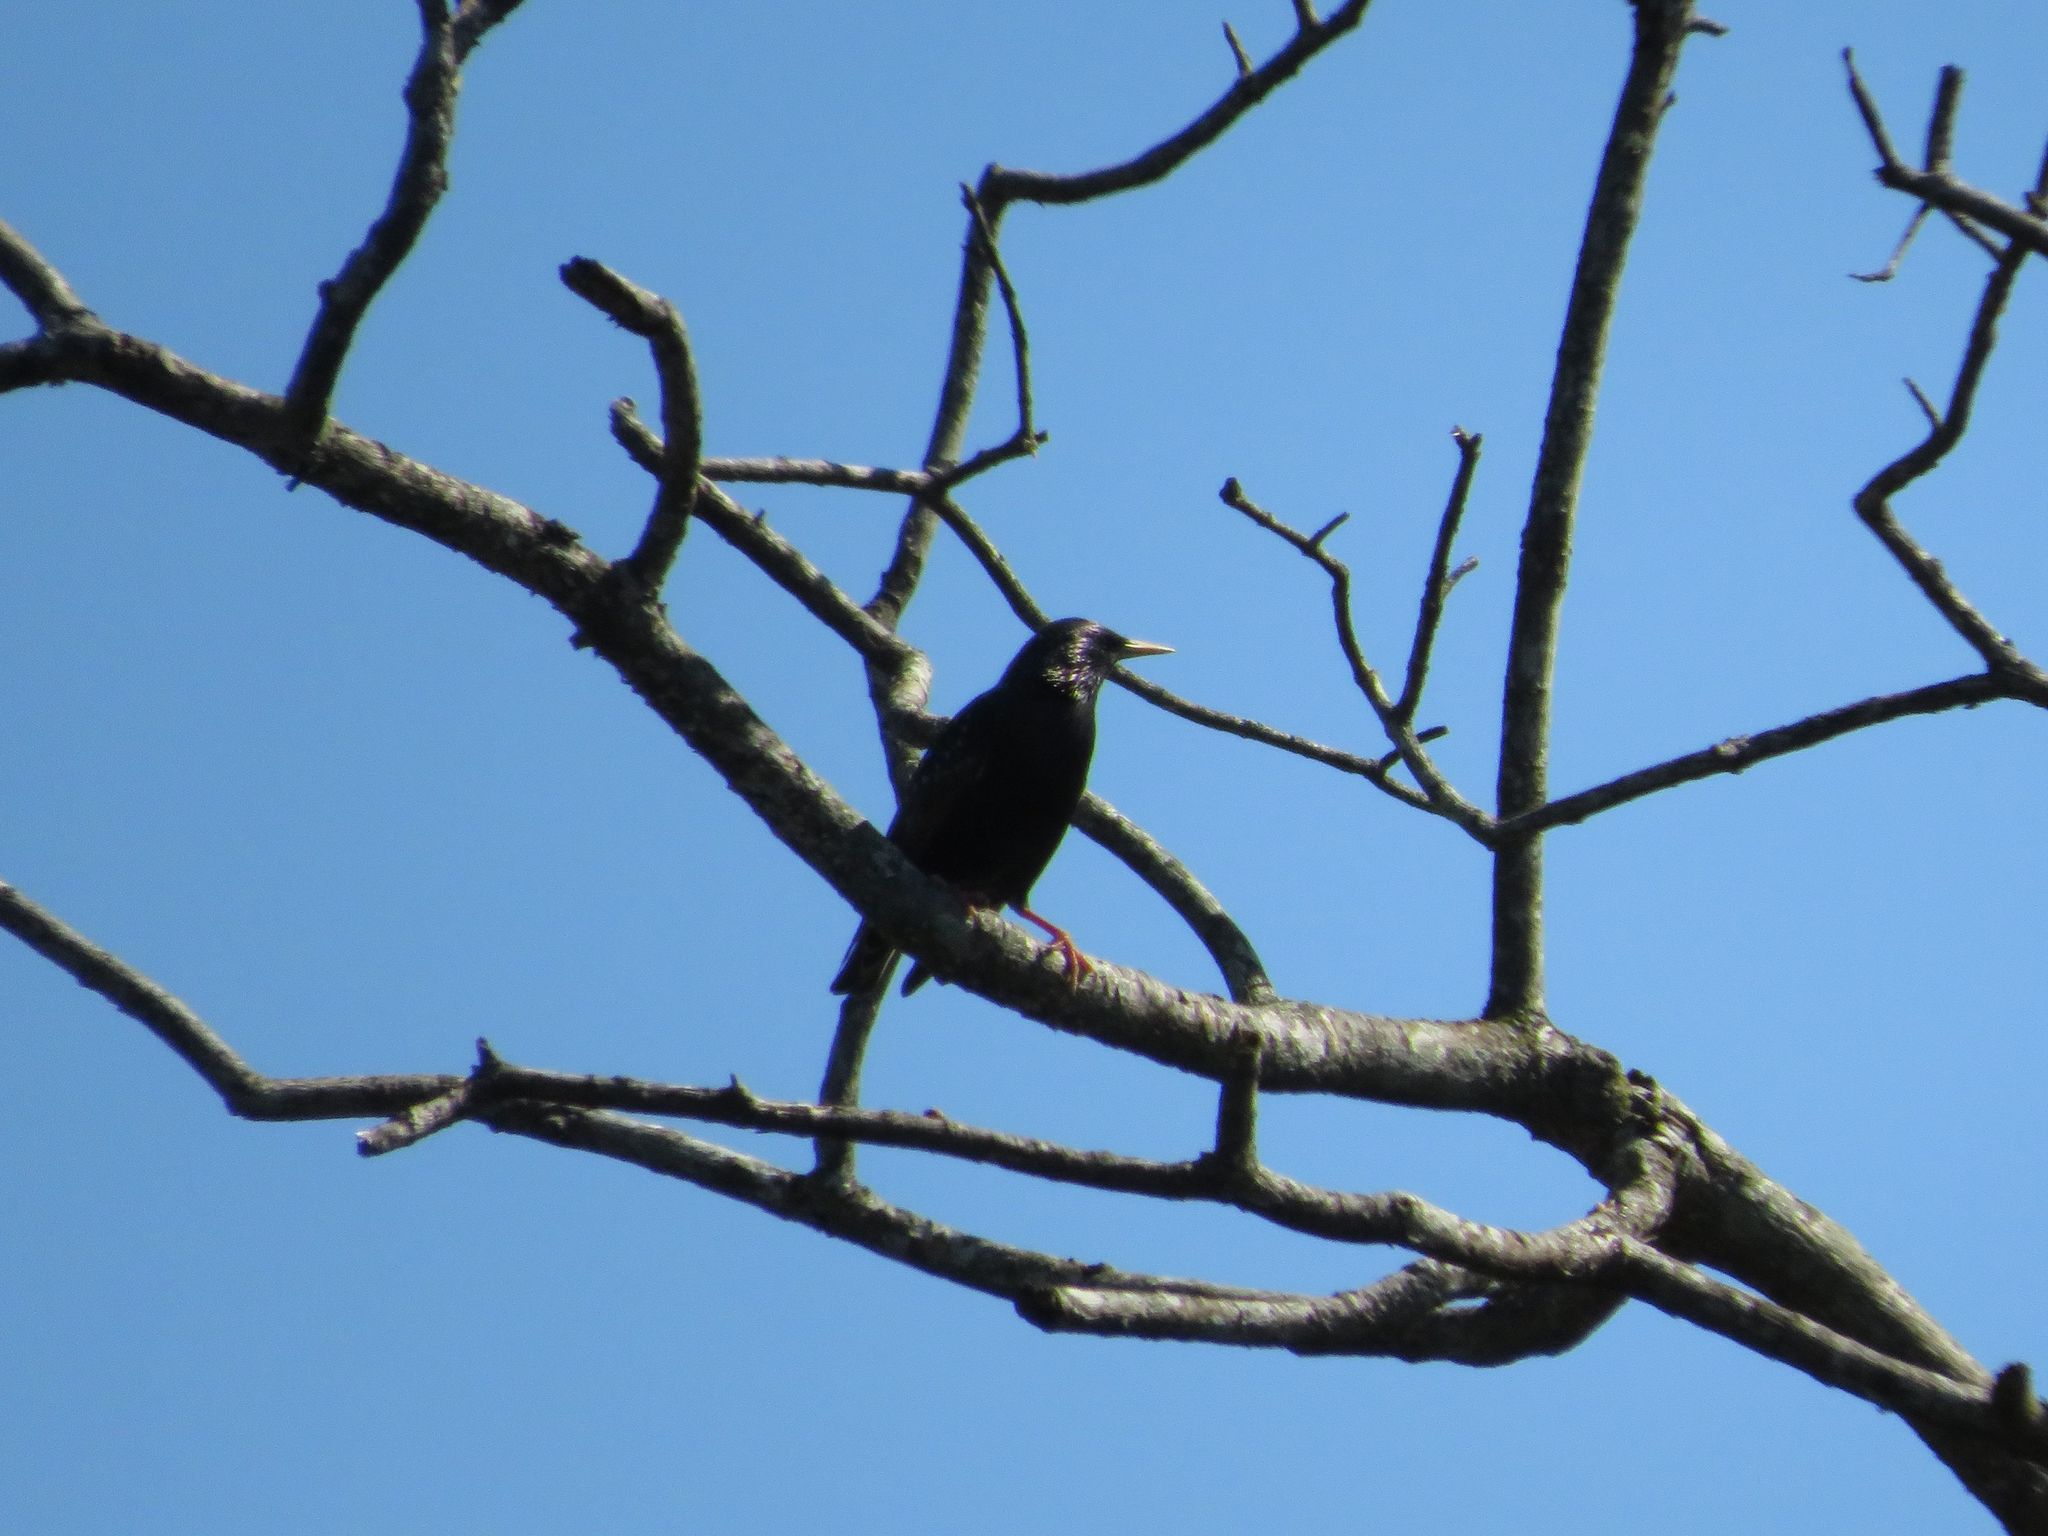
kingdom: Animalia
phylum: Chordata
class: Aves
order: Passeriformes
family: Sturnidae
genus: Sturnus
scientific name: Sturnus vulgaris
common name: Common starling
